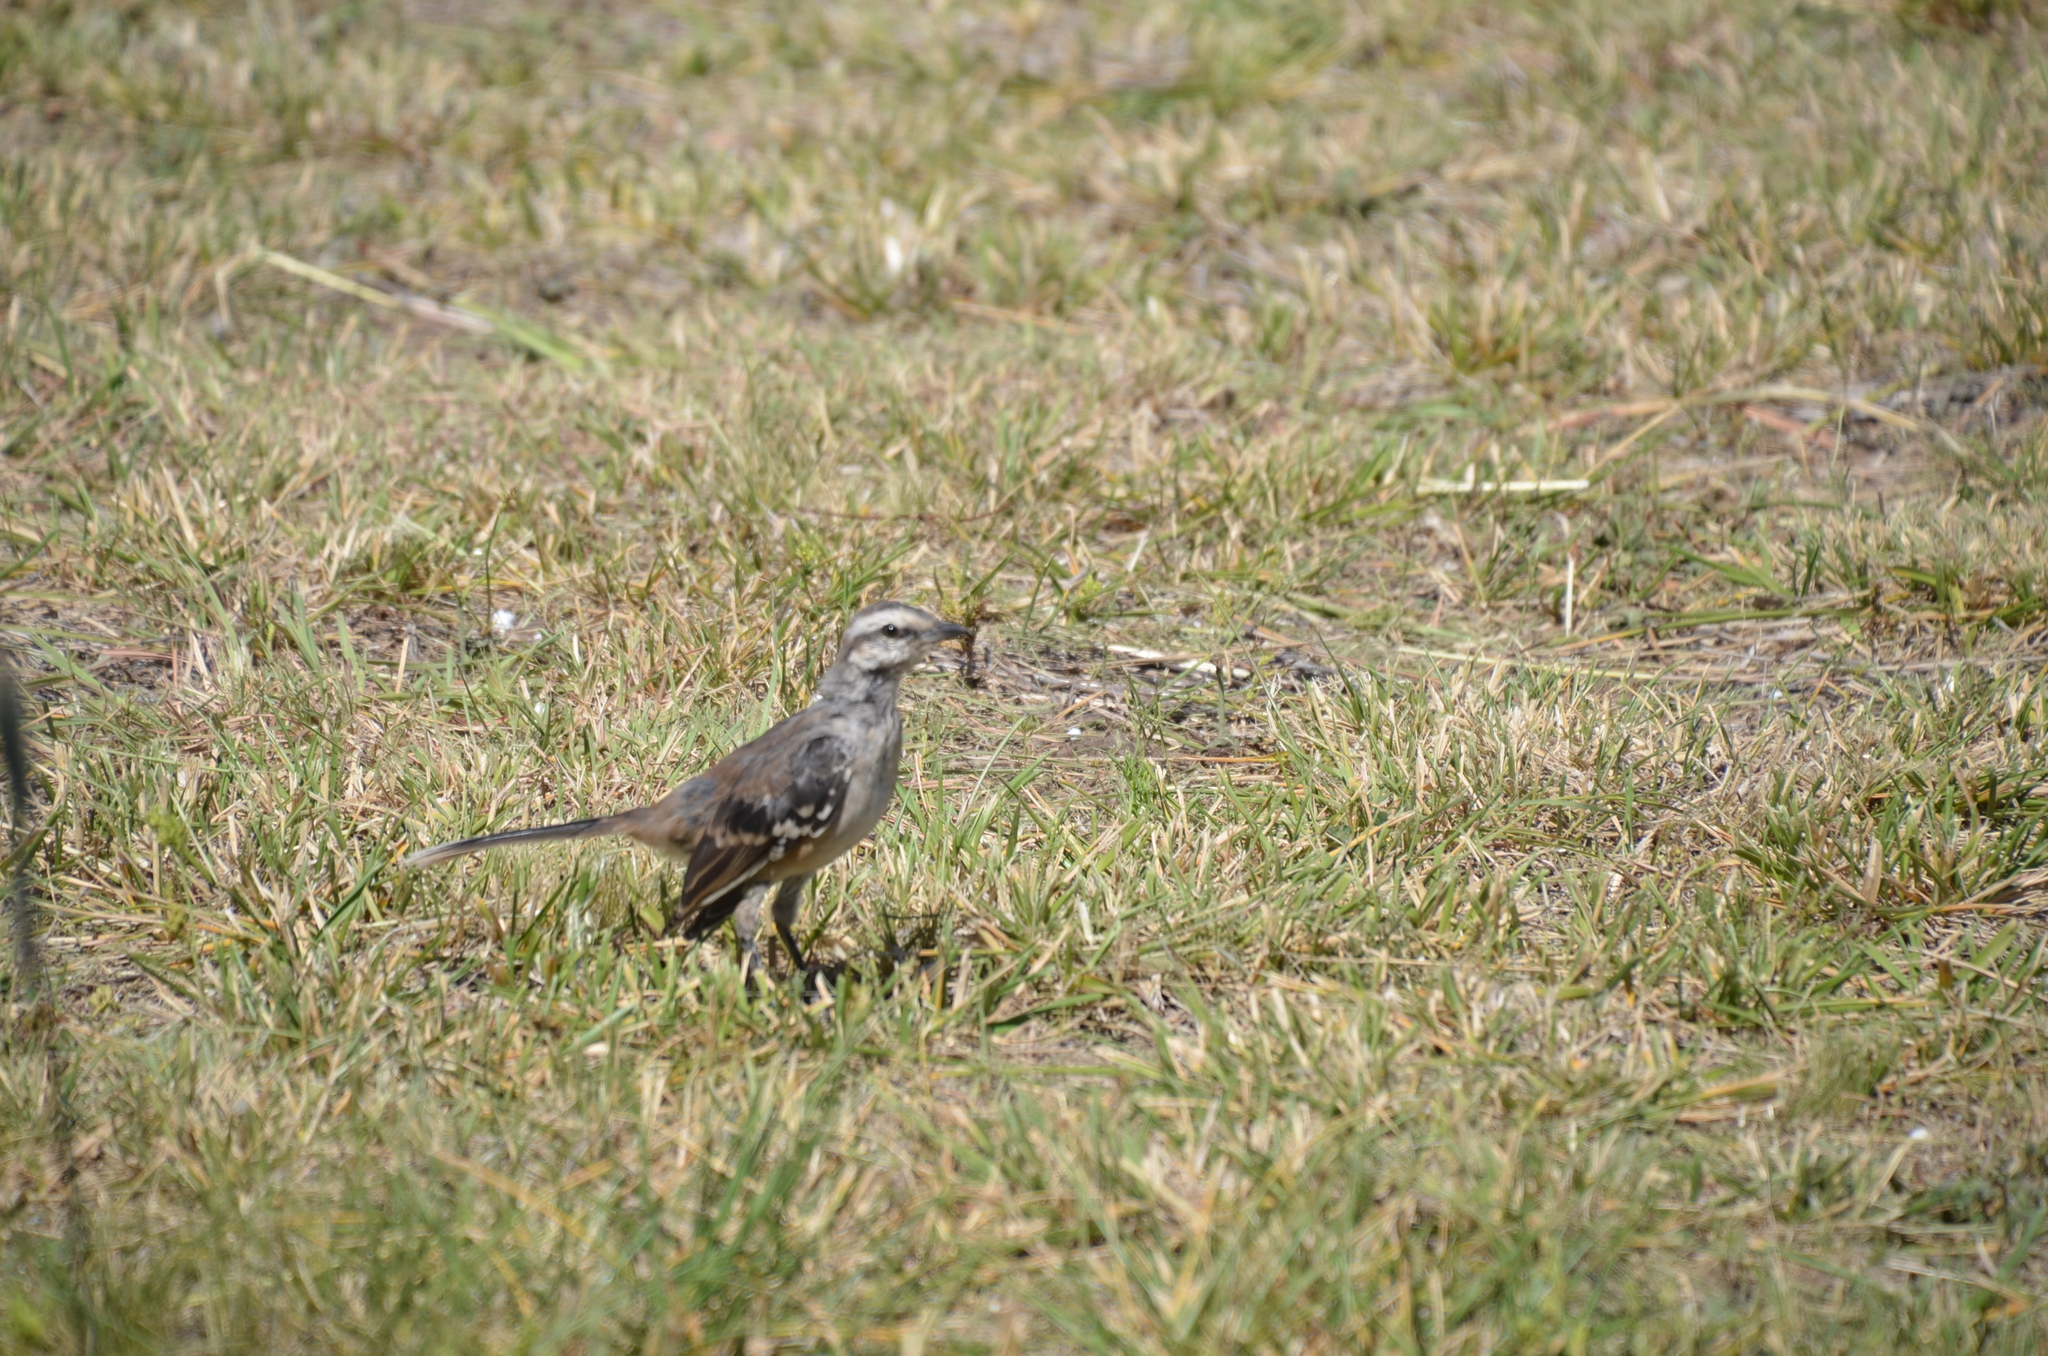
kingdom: Animalia
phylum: Chordata
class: Aves
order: Passeriformes
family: Mimidae
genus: Mimus
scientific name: Mimus saturninus
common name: Chalk-browed mockingbird
